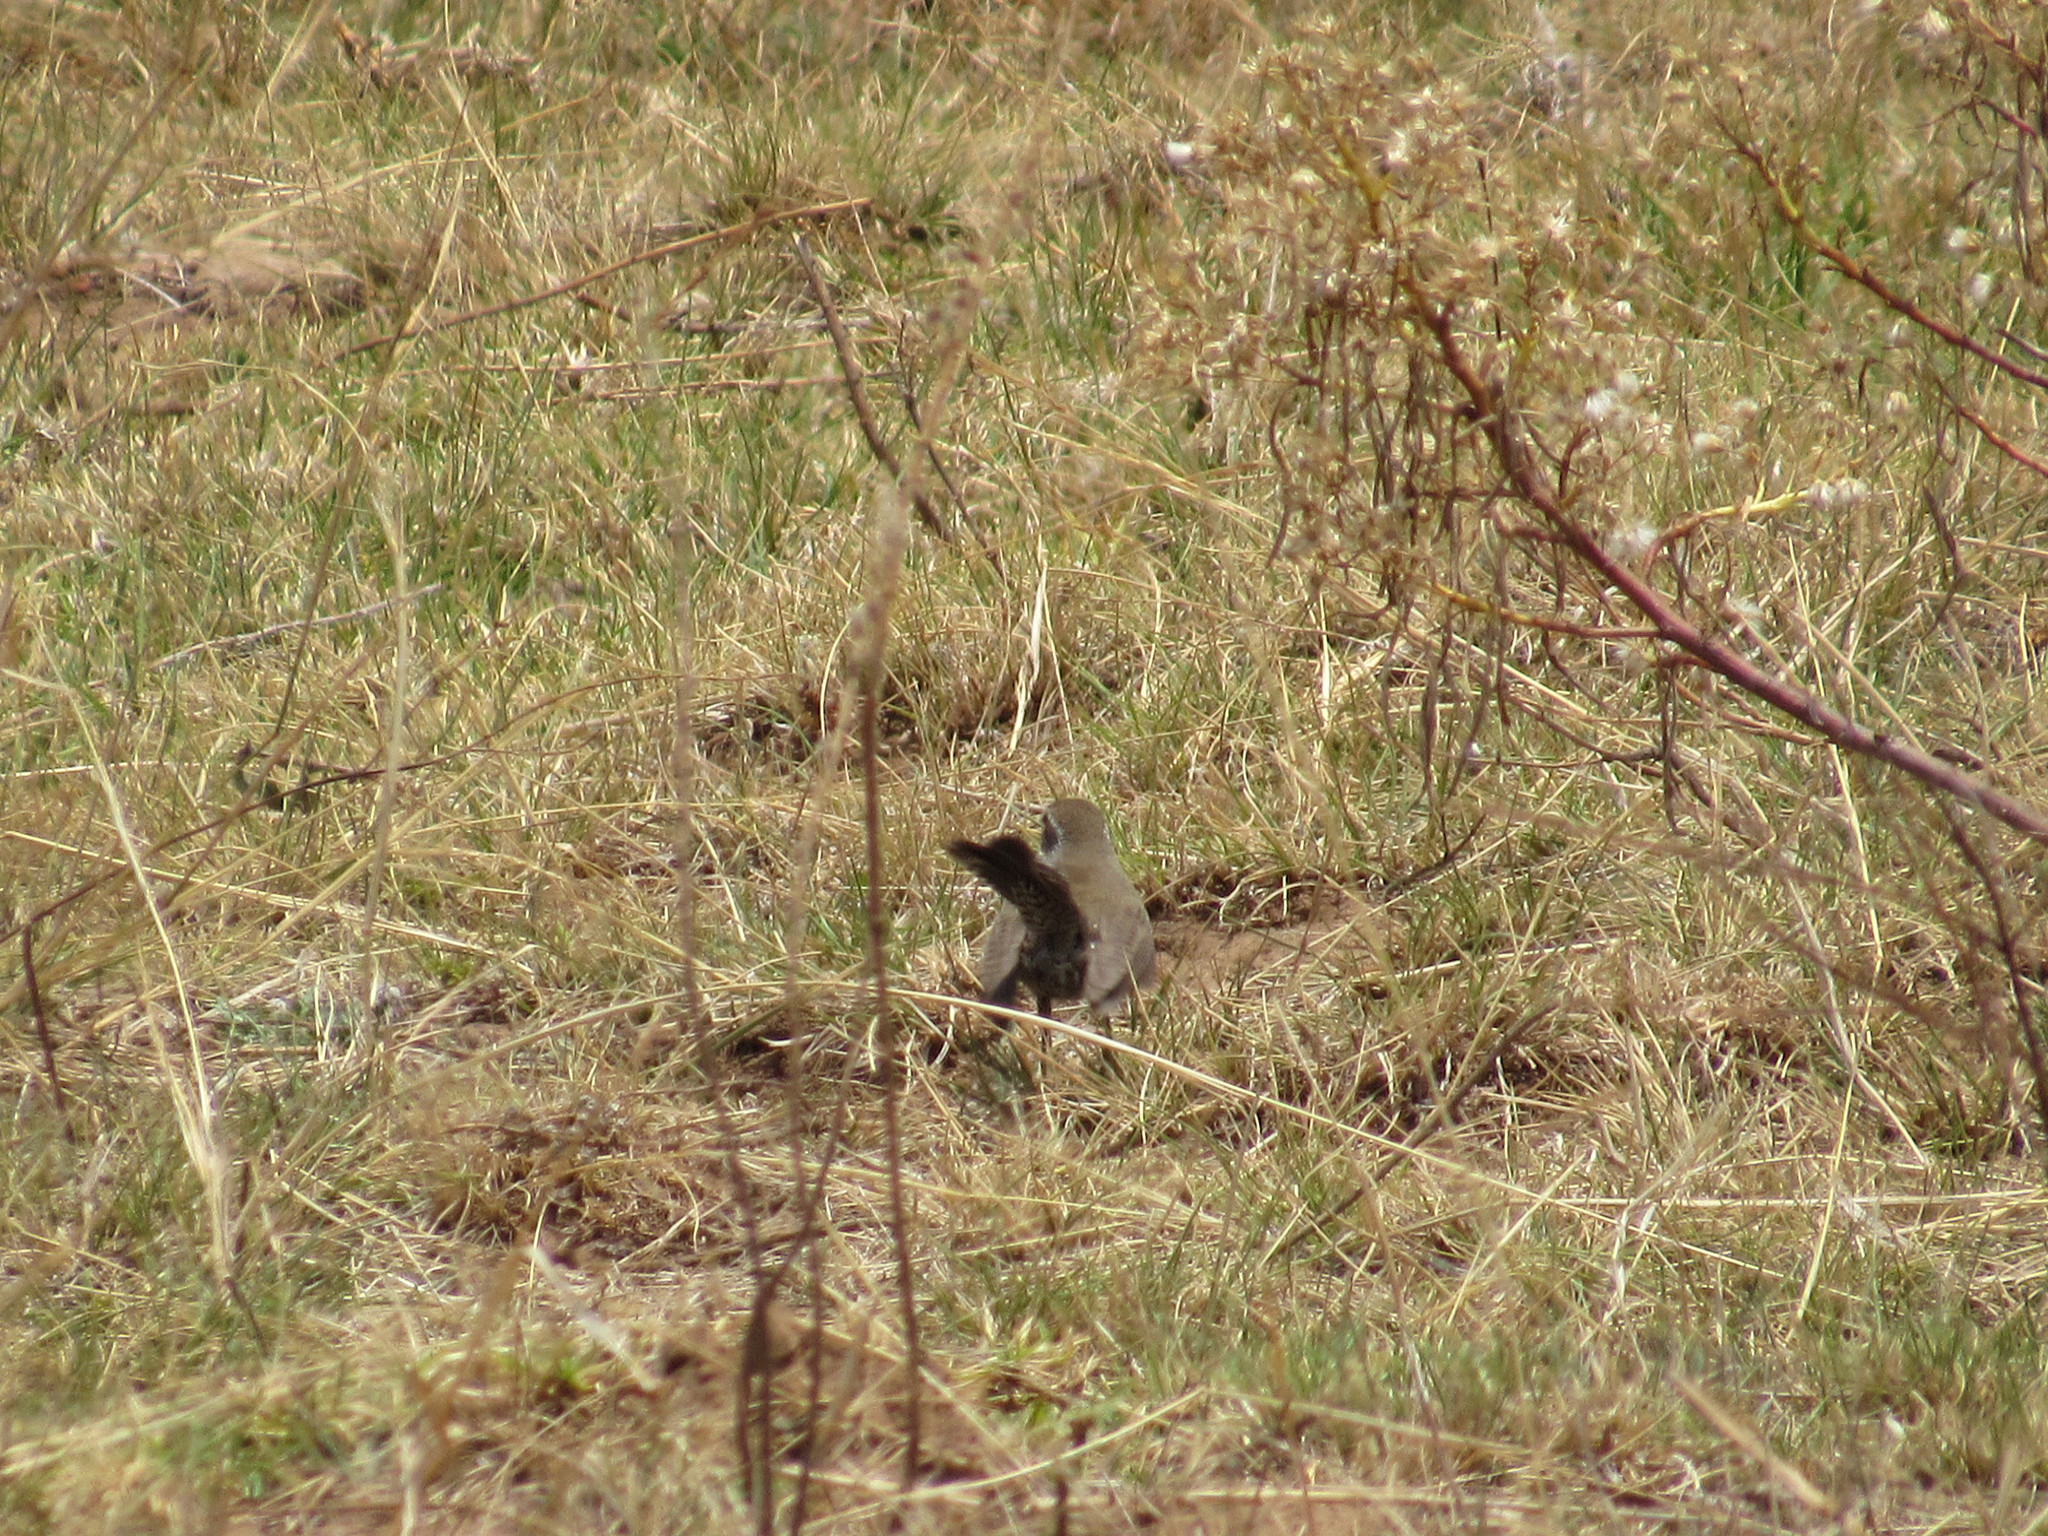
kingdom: Animalia
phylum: Chordata
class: Aves
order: Passeriformes
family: Troglodytidae
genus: Thryomanes
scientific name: Thryomanes bewickii
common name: Bewick's wren
